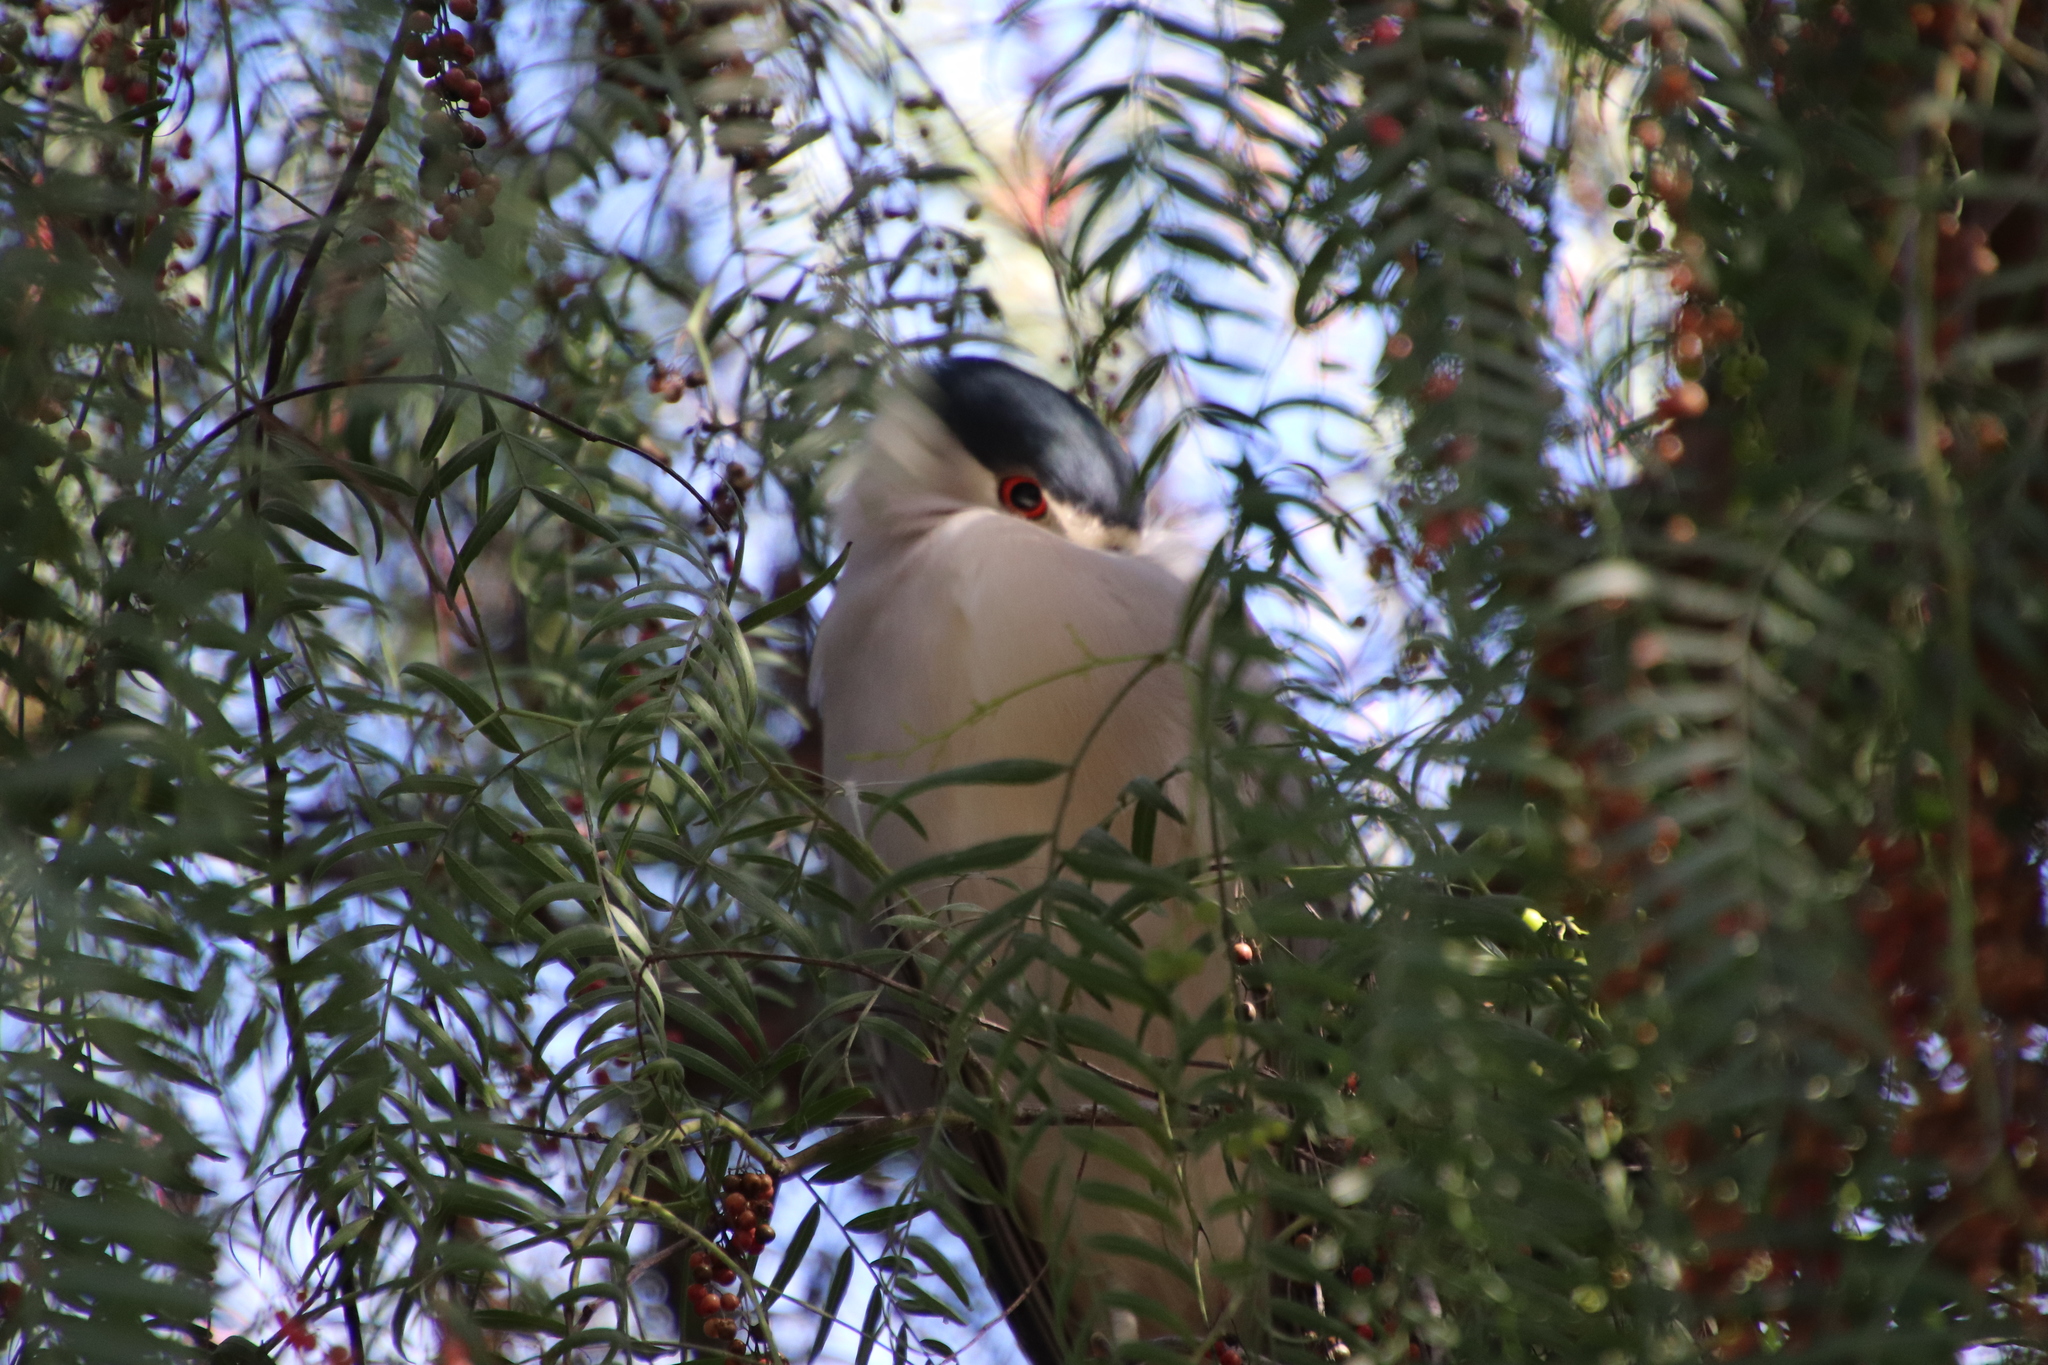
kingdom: Animalia
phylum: Chordata
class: Aves
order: Pelecaniformes
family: Ardeidae
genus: Nycticorax
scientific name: Nycticorax nycticorax
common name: Black-crowned night heron
